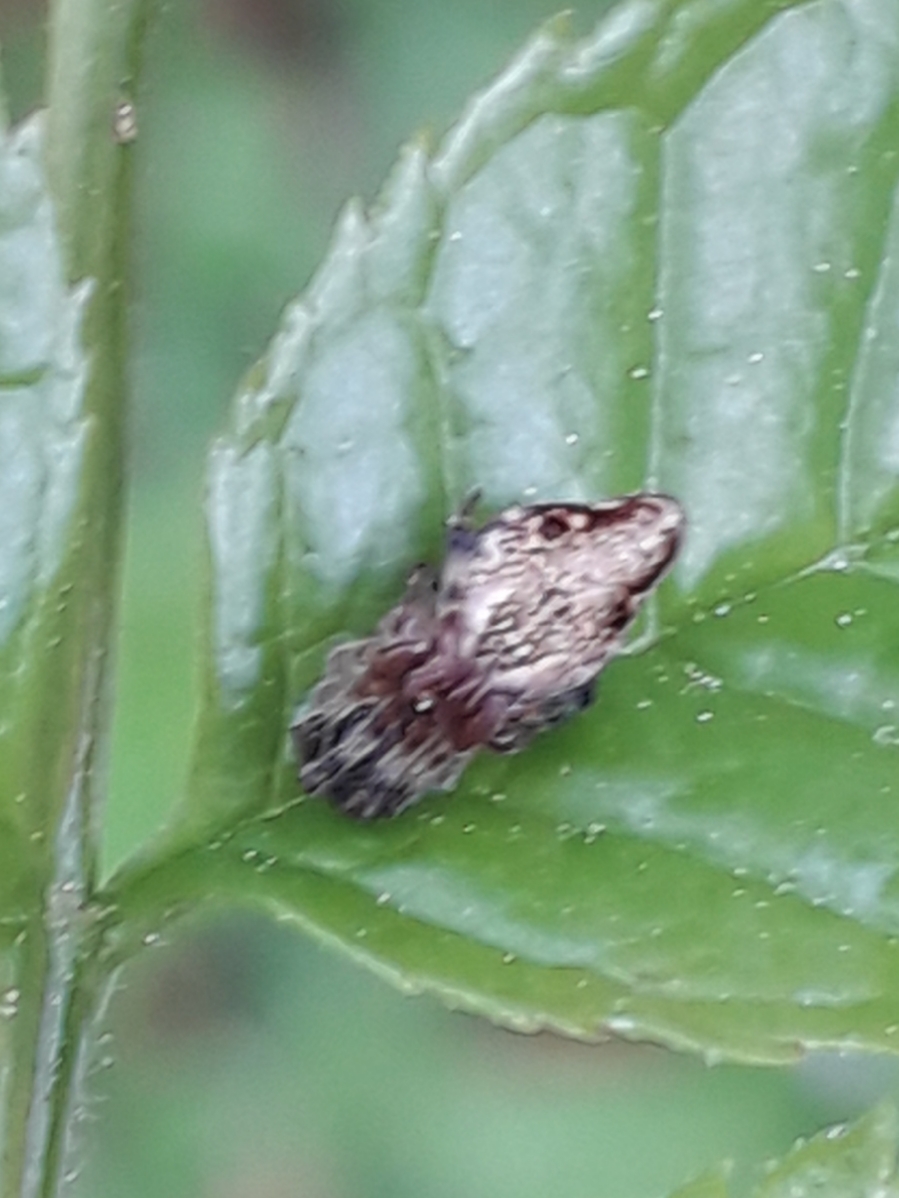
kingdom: Animalia
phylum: Arthropoda
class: Arachnida
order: Araneae
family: Araneidae
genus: Cyclosa
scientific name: Cyclosa conica
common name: Conical trashline orbweaver
